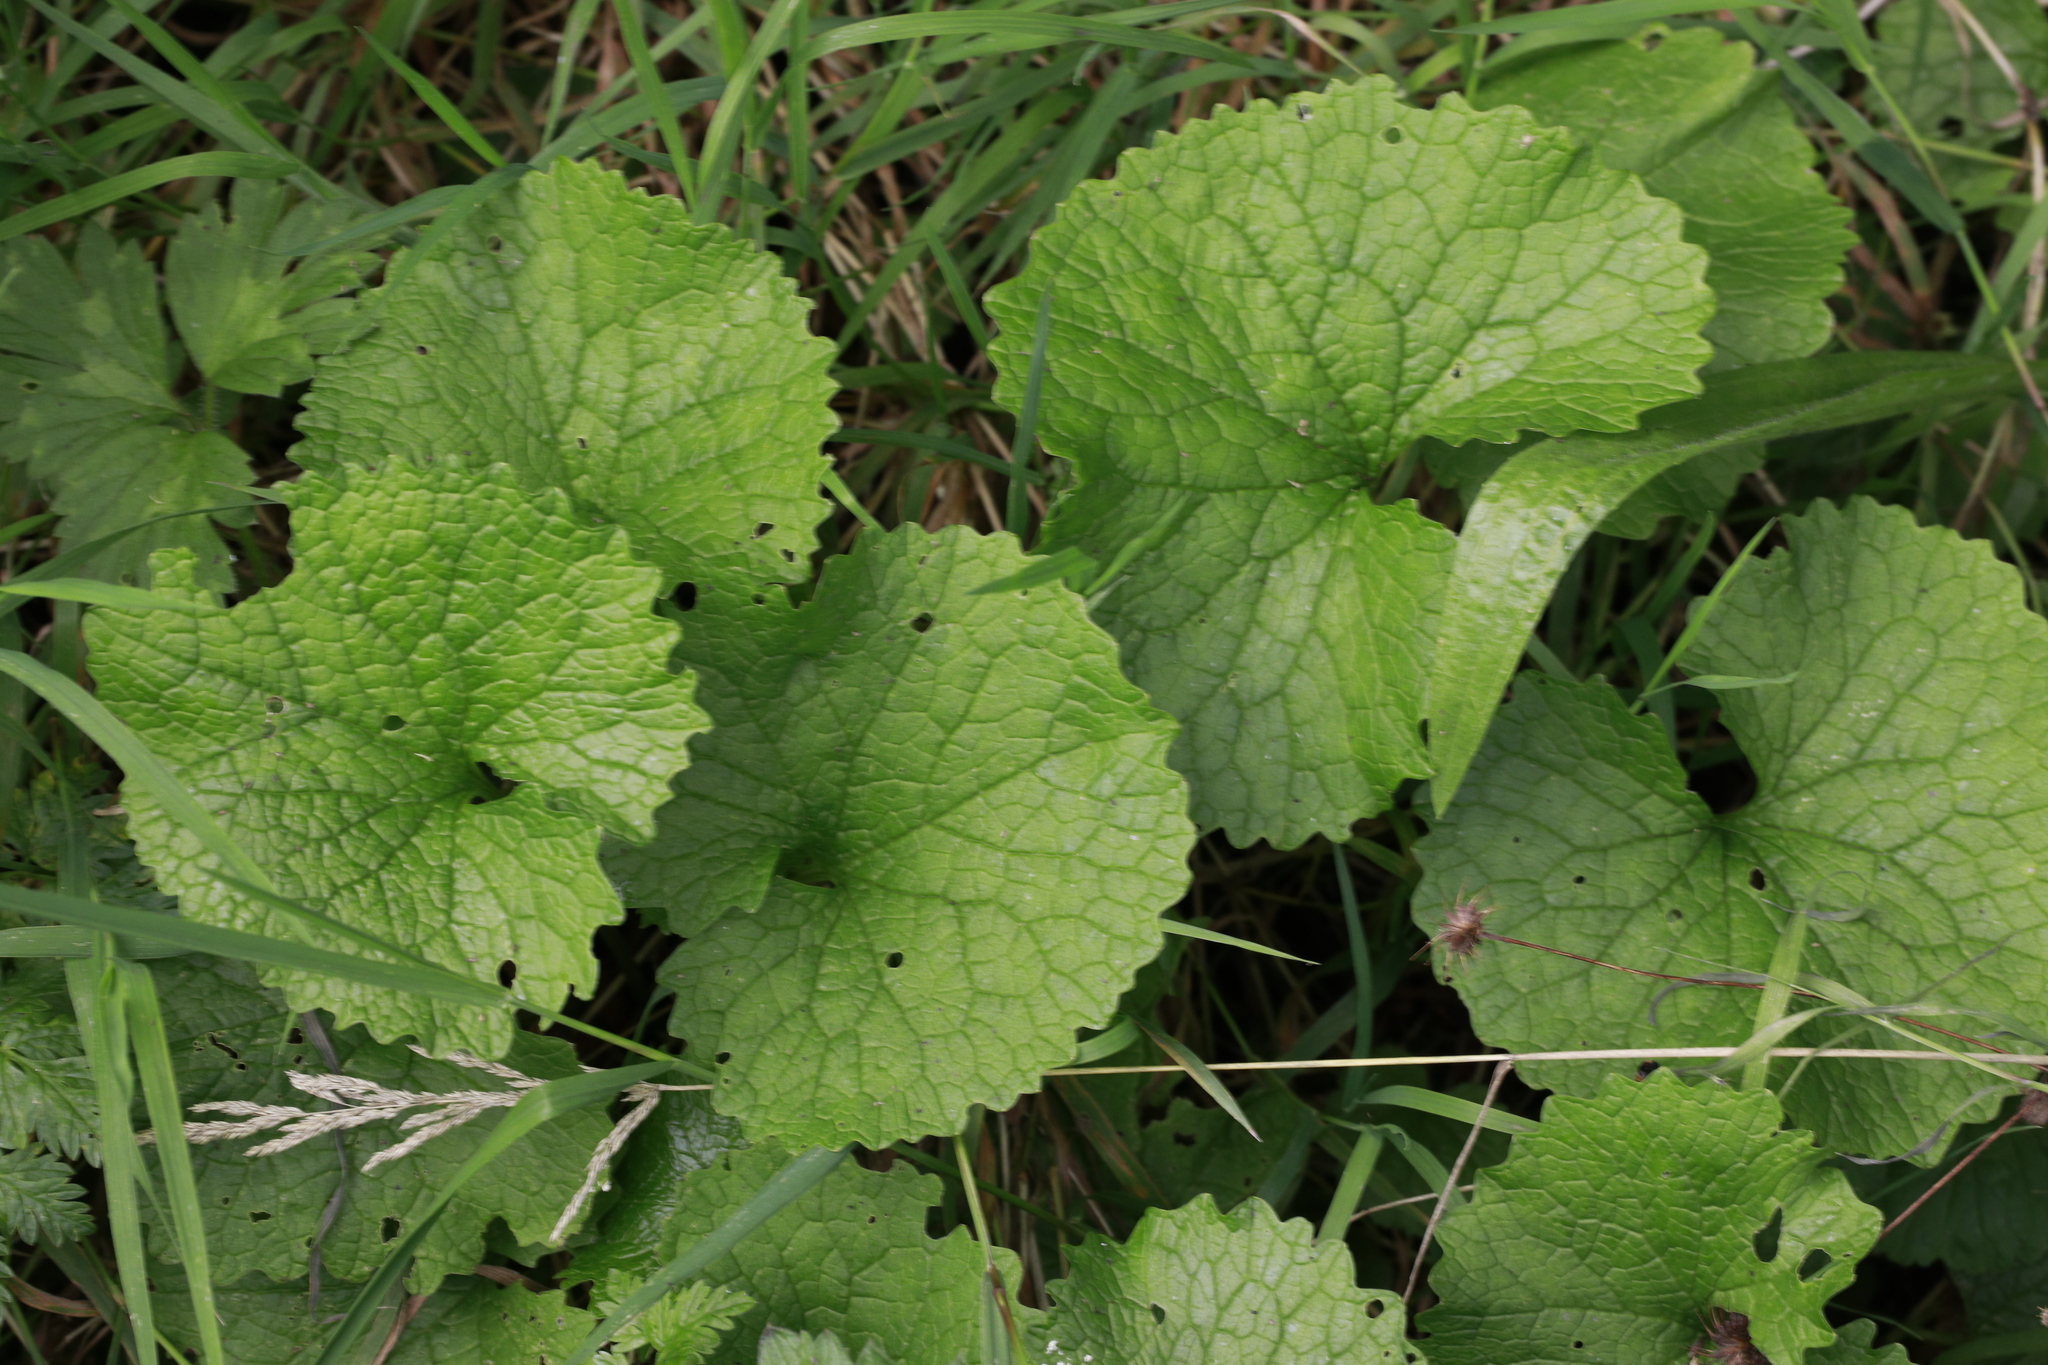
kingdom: Plantae
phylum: Tracheophyta
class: Magnoliopsida
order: Brassicales
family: Brassicaceae
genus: Alliaria
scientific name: Alliaria petiolata
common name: Garlic mustard
